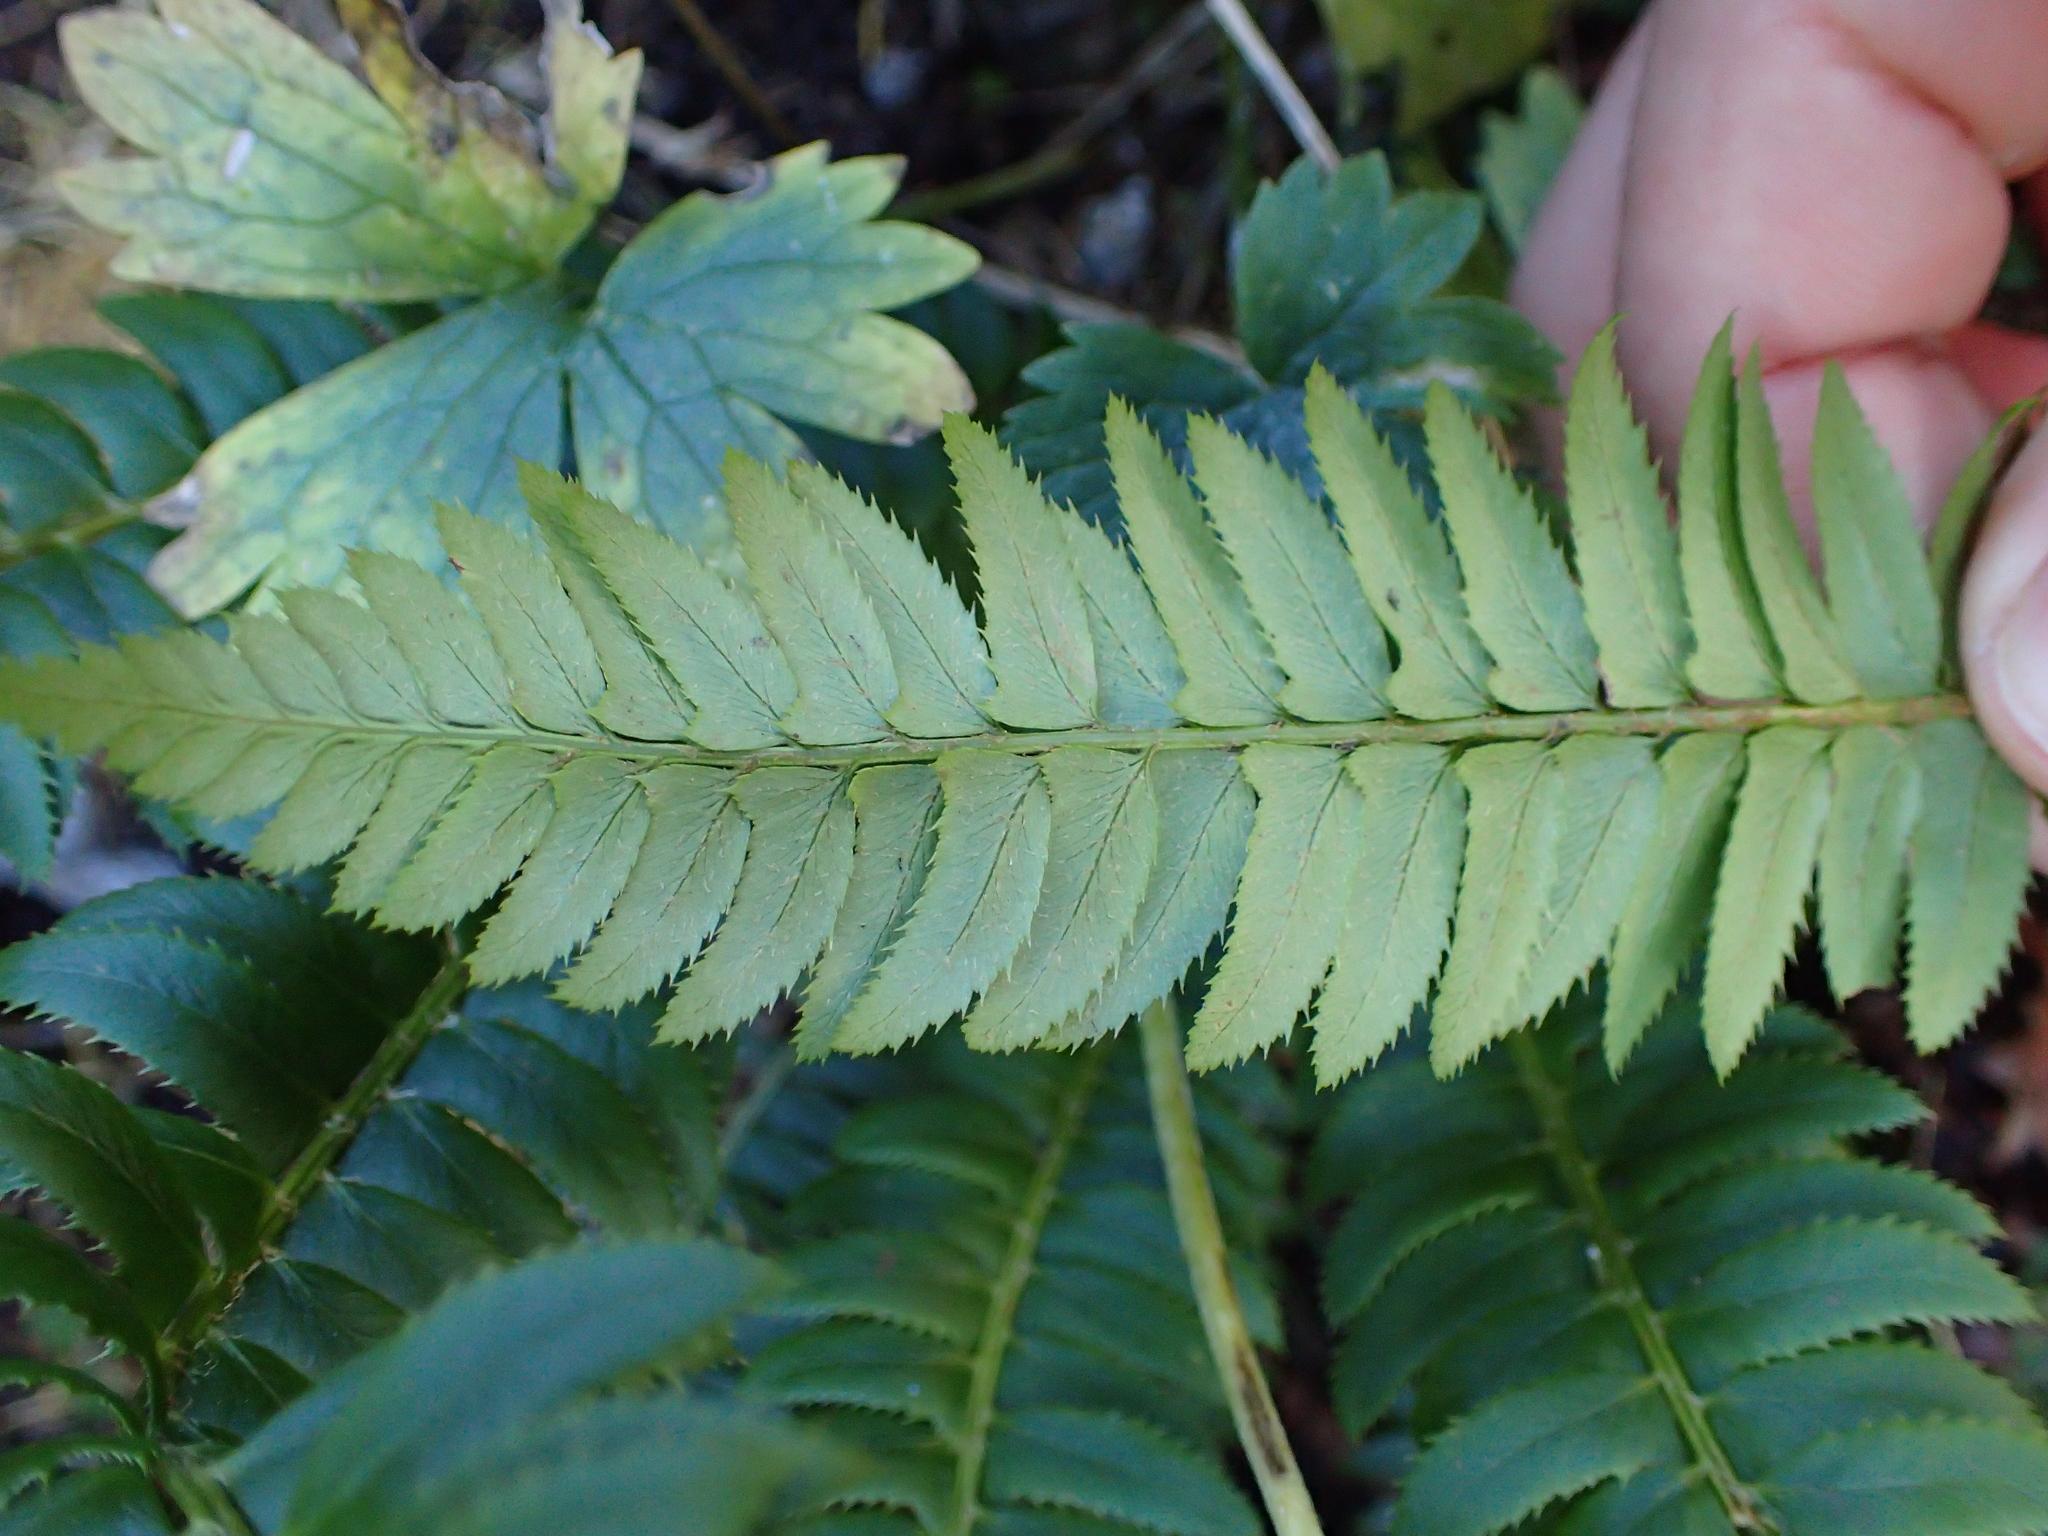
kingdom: Plantae
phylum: Tracheophyta
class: Polypodiopsida
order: Polypodiales
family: Dryopteridaceae
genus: Polystichum
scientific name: Polystichum lonchitis
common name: Holly fern
